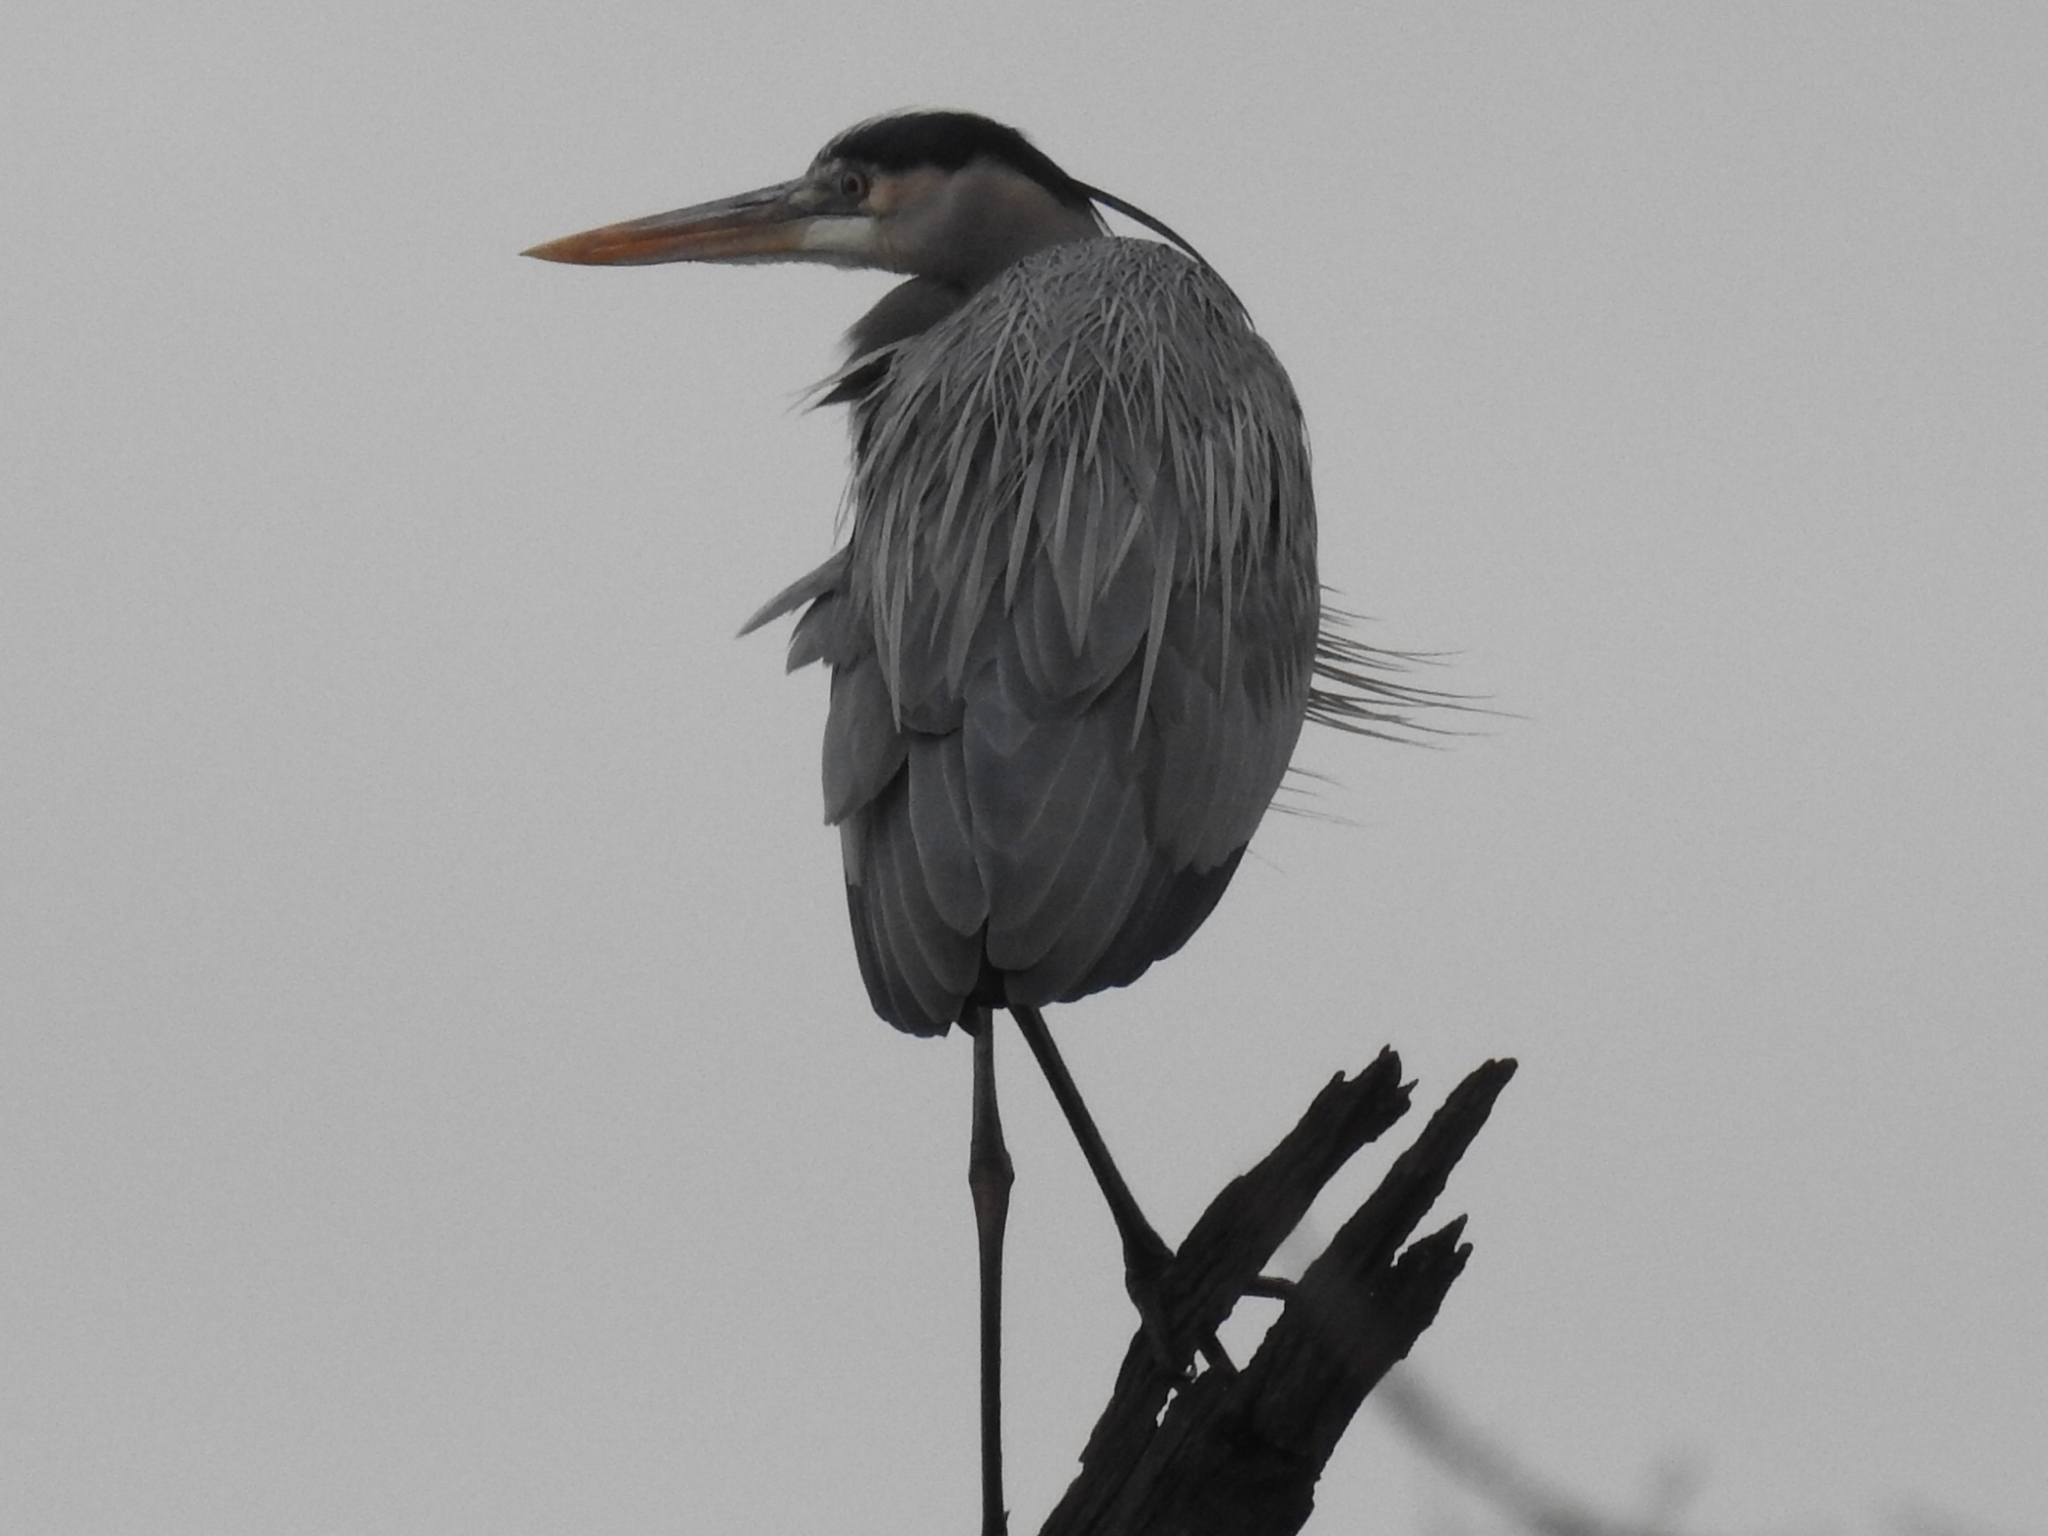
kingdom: Animalia
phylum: Chordata
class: Aves
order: Pelecaniformes
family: Ardeidae
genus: Ardea
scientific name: Ardea herodias
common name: Great blue heron
